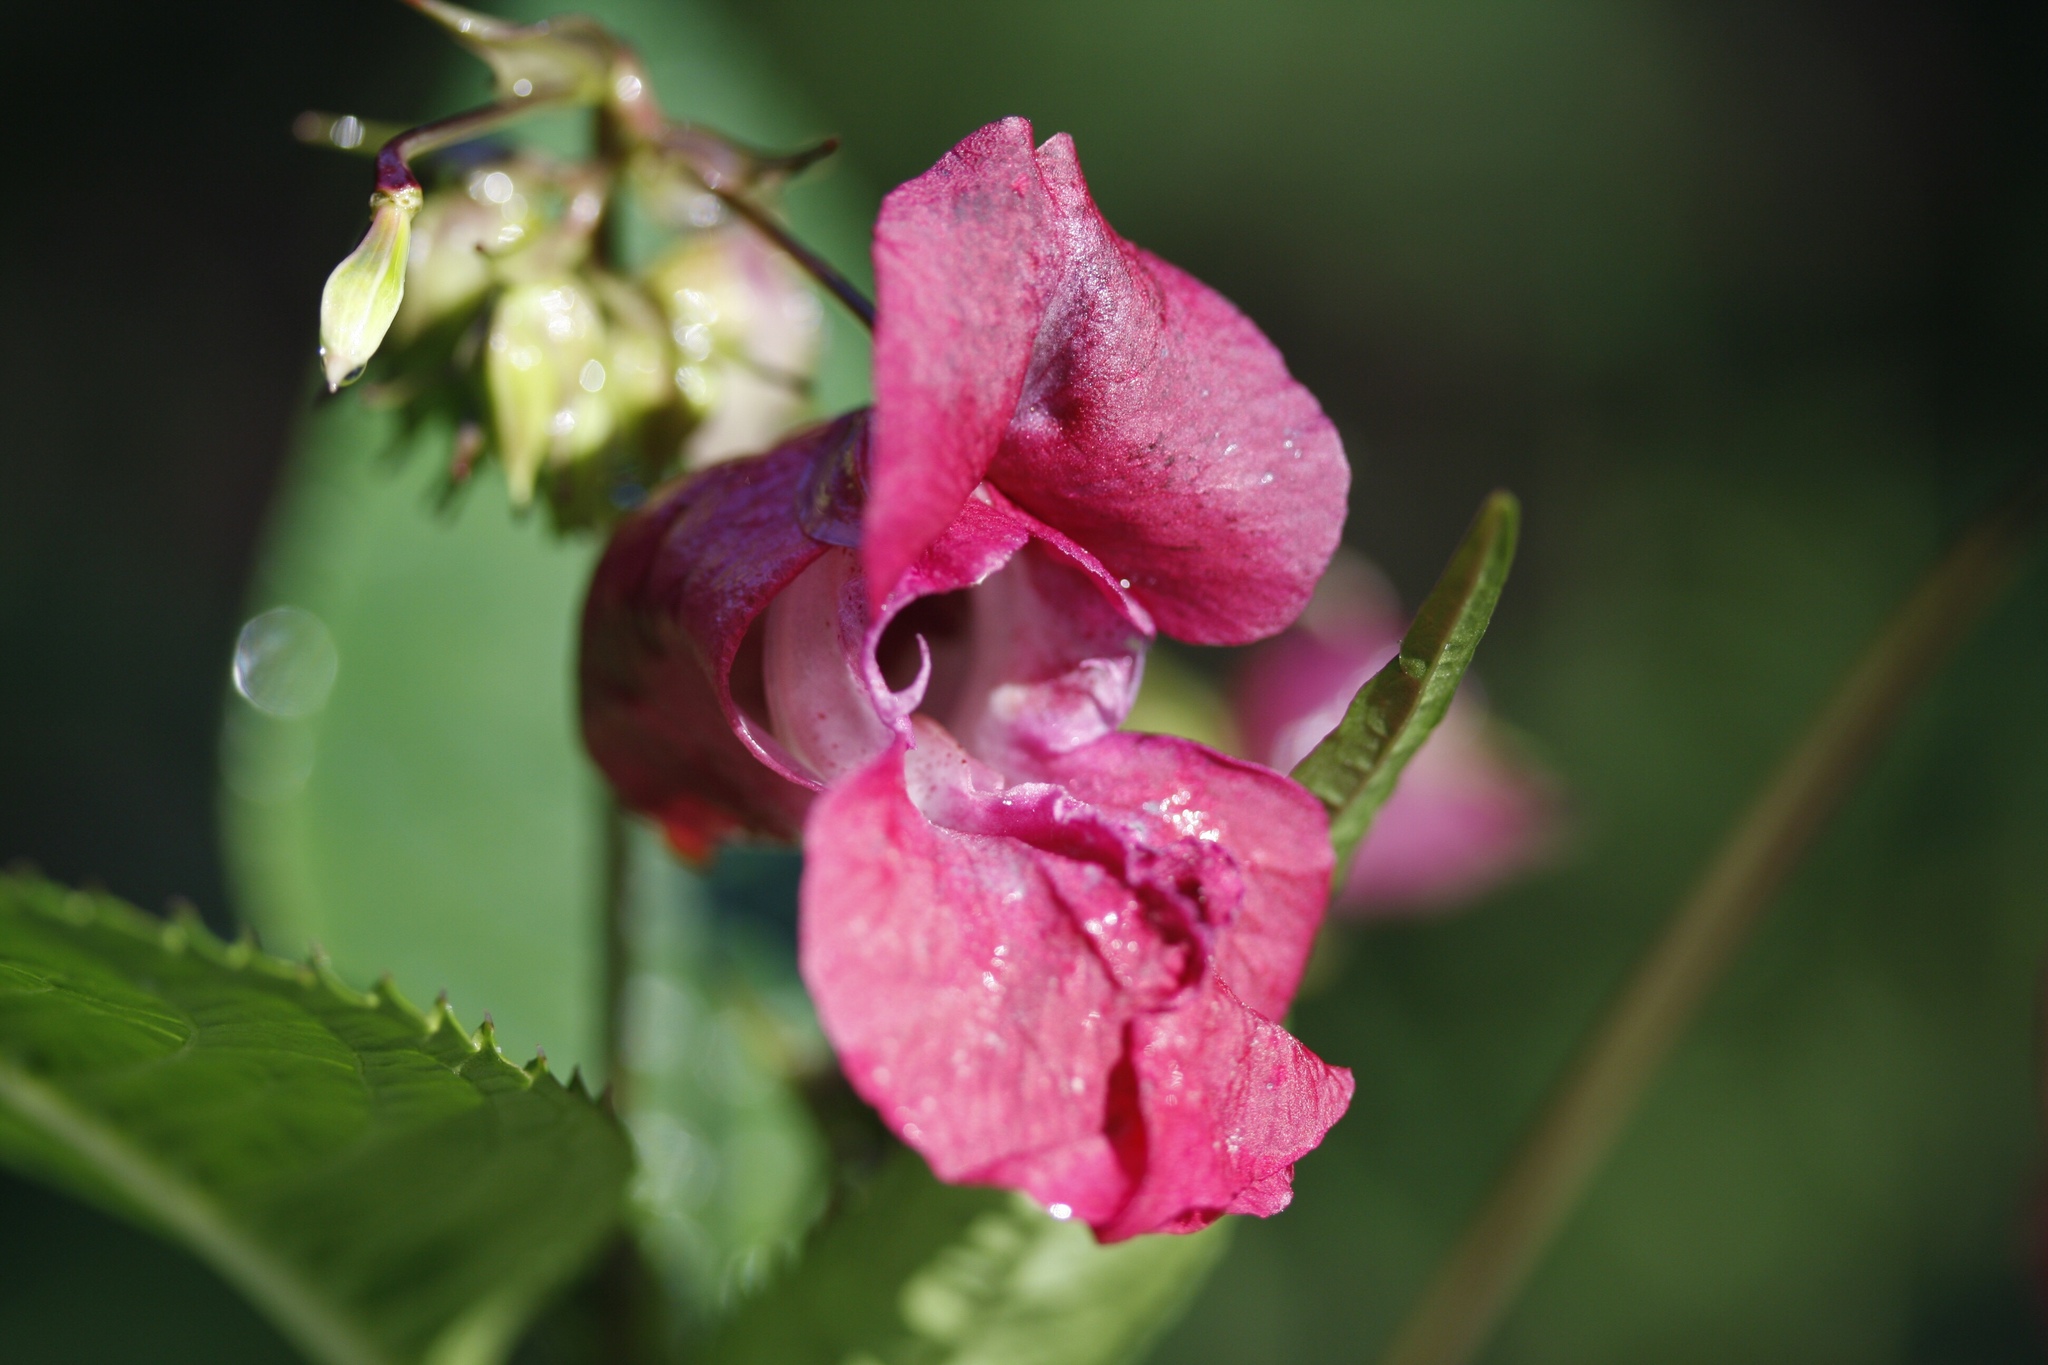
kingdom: Plantae
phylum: Tracheophyta
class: Magnoliopsida
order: Ericales
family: Balsaminaceae
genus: Impatiens
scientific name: Impatiens glandulifera
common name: Himalayan balsam
